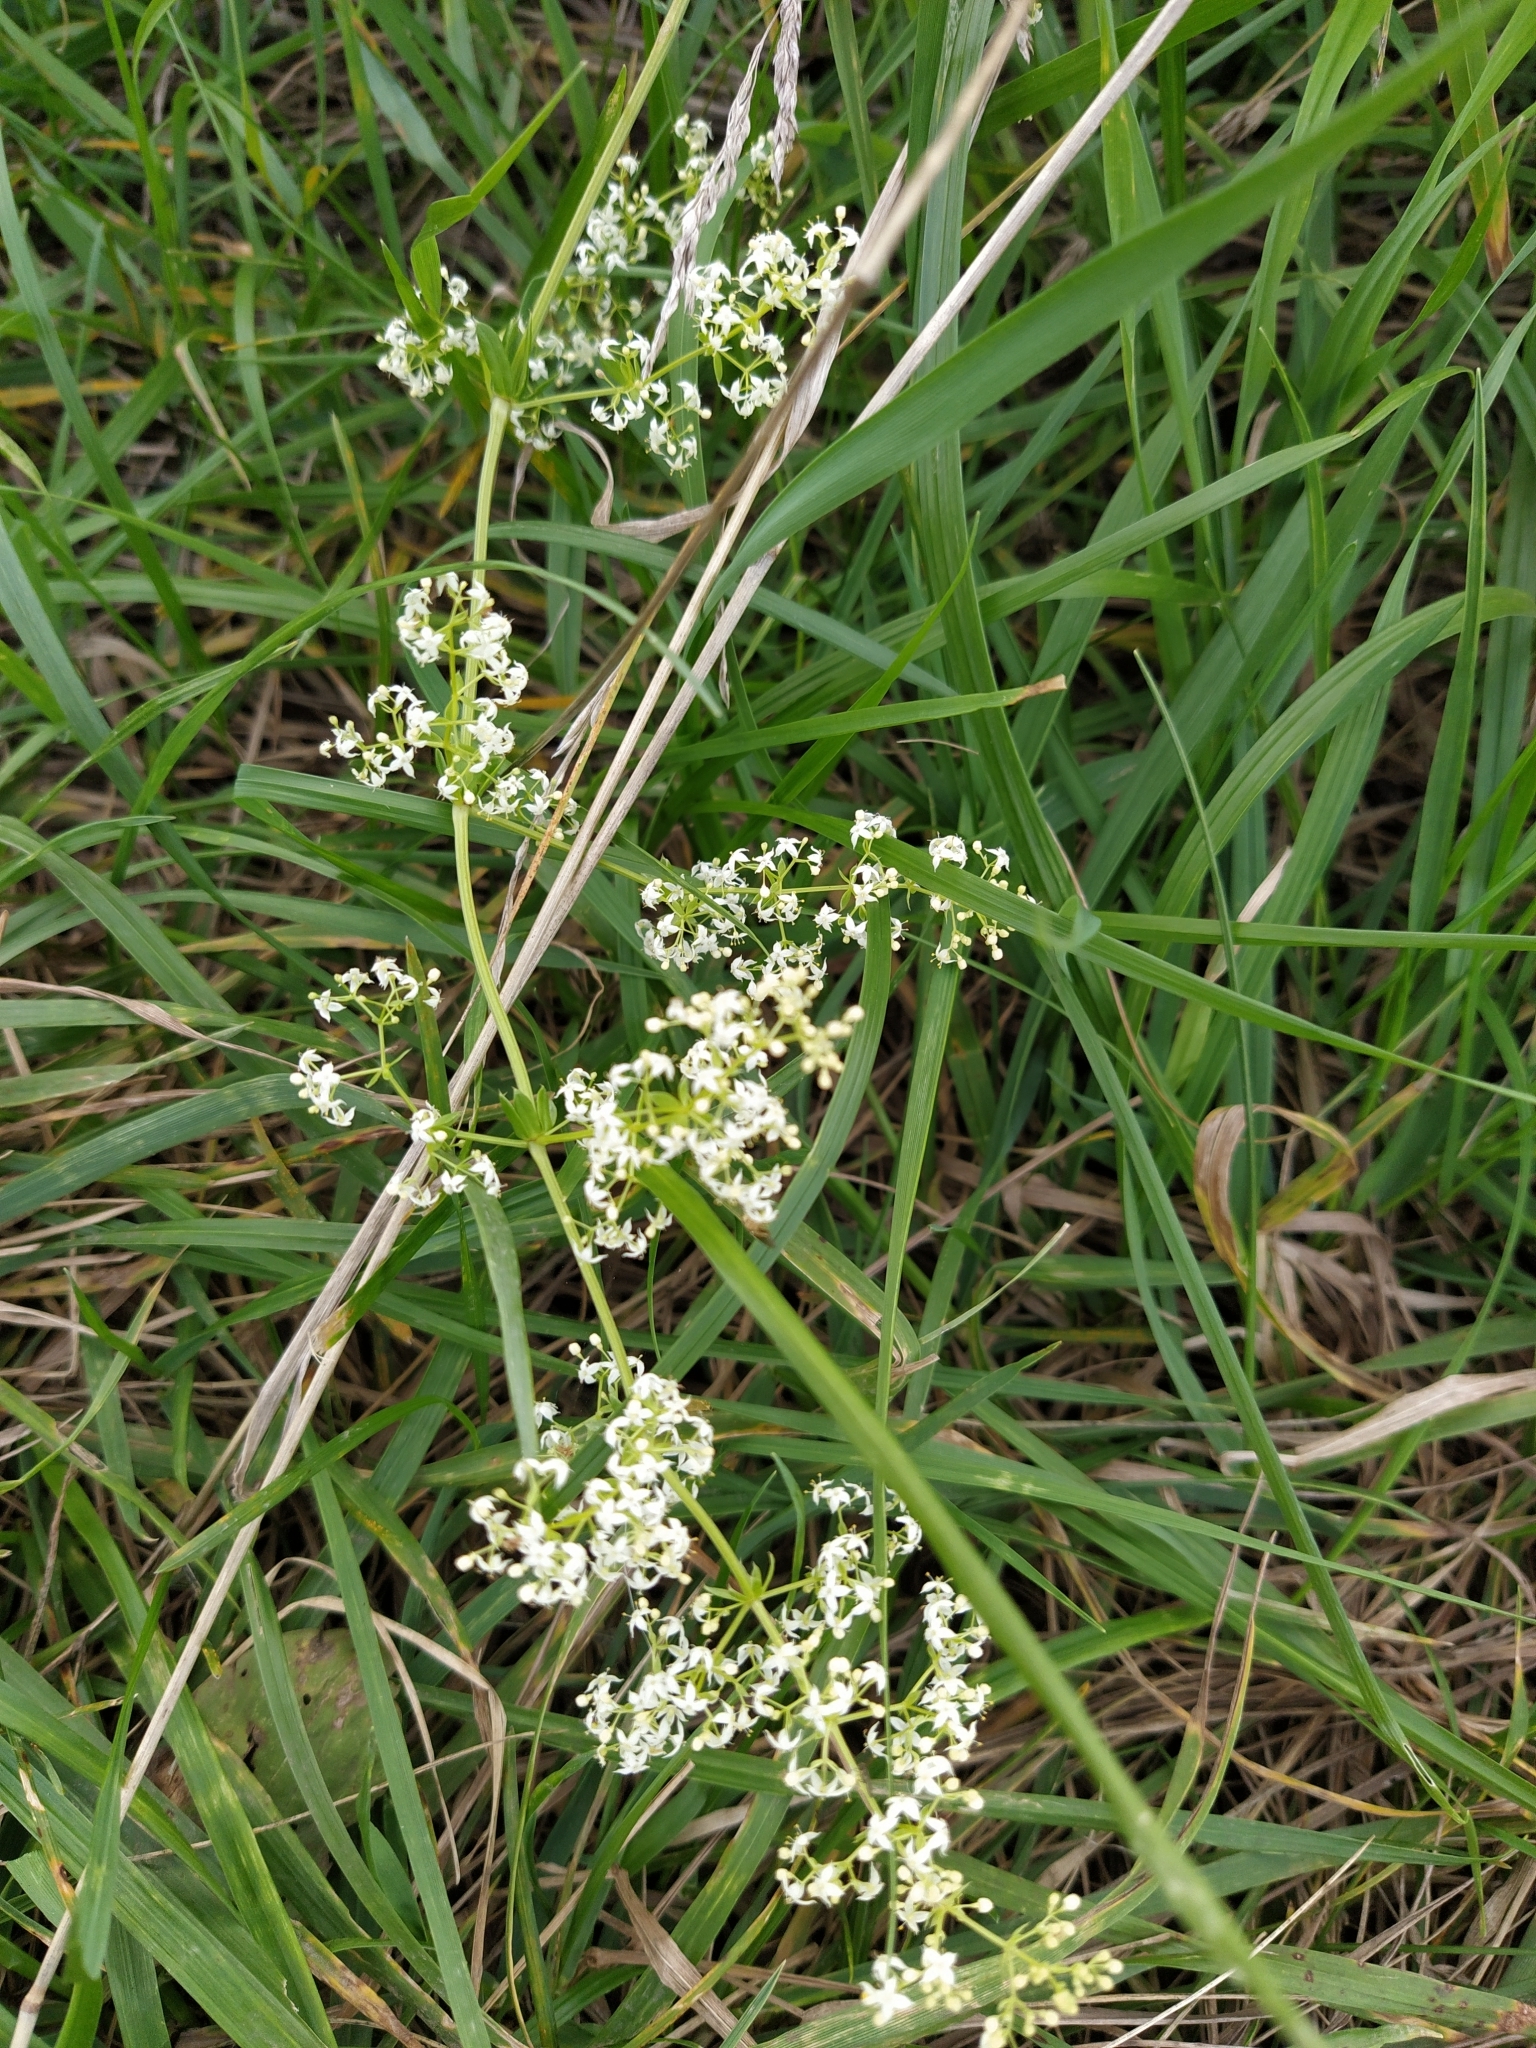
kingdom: Plantae
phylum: Tracheophyta
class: Magnoliopsida
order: Gentianales
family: Rubiaceae
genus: Galium
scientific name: Galium mollugo
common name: Hedge bedstraw
